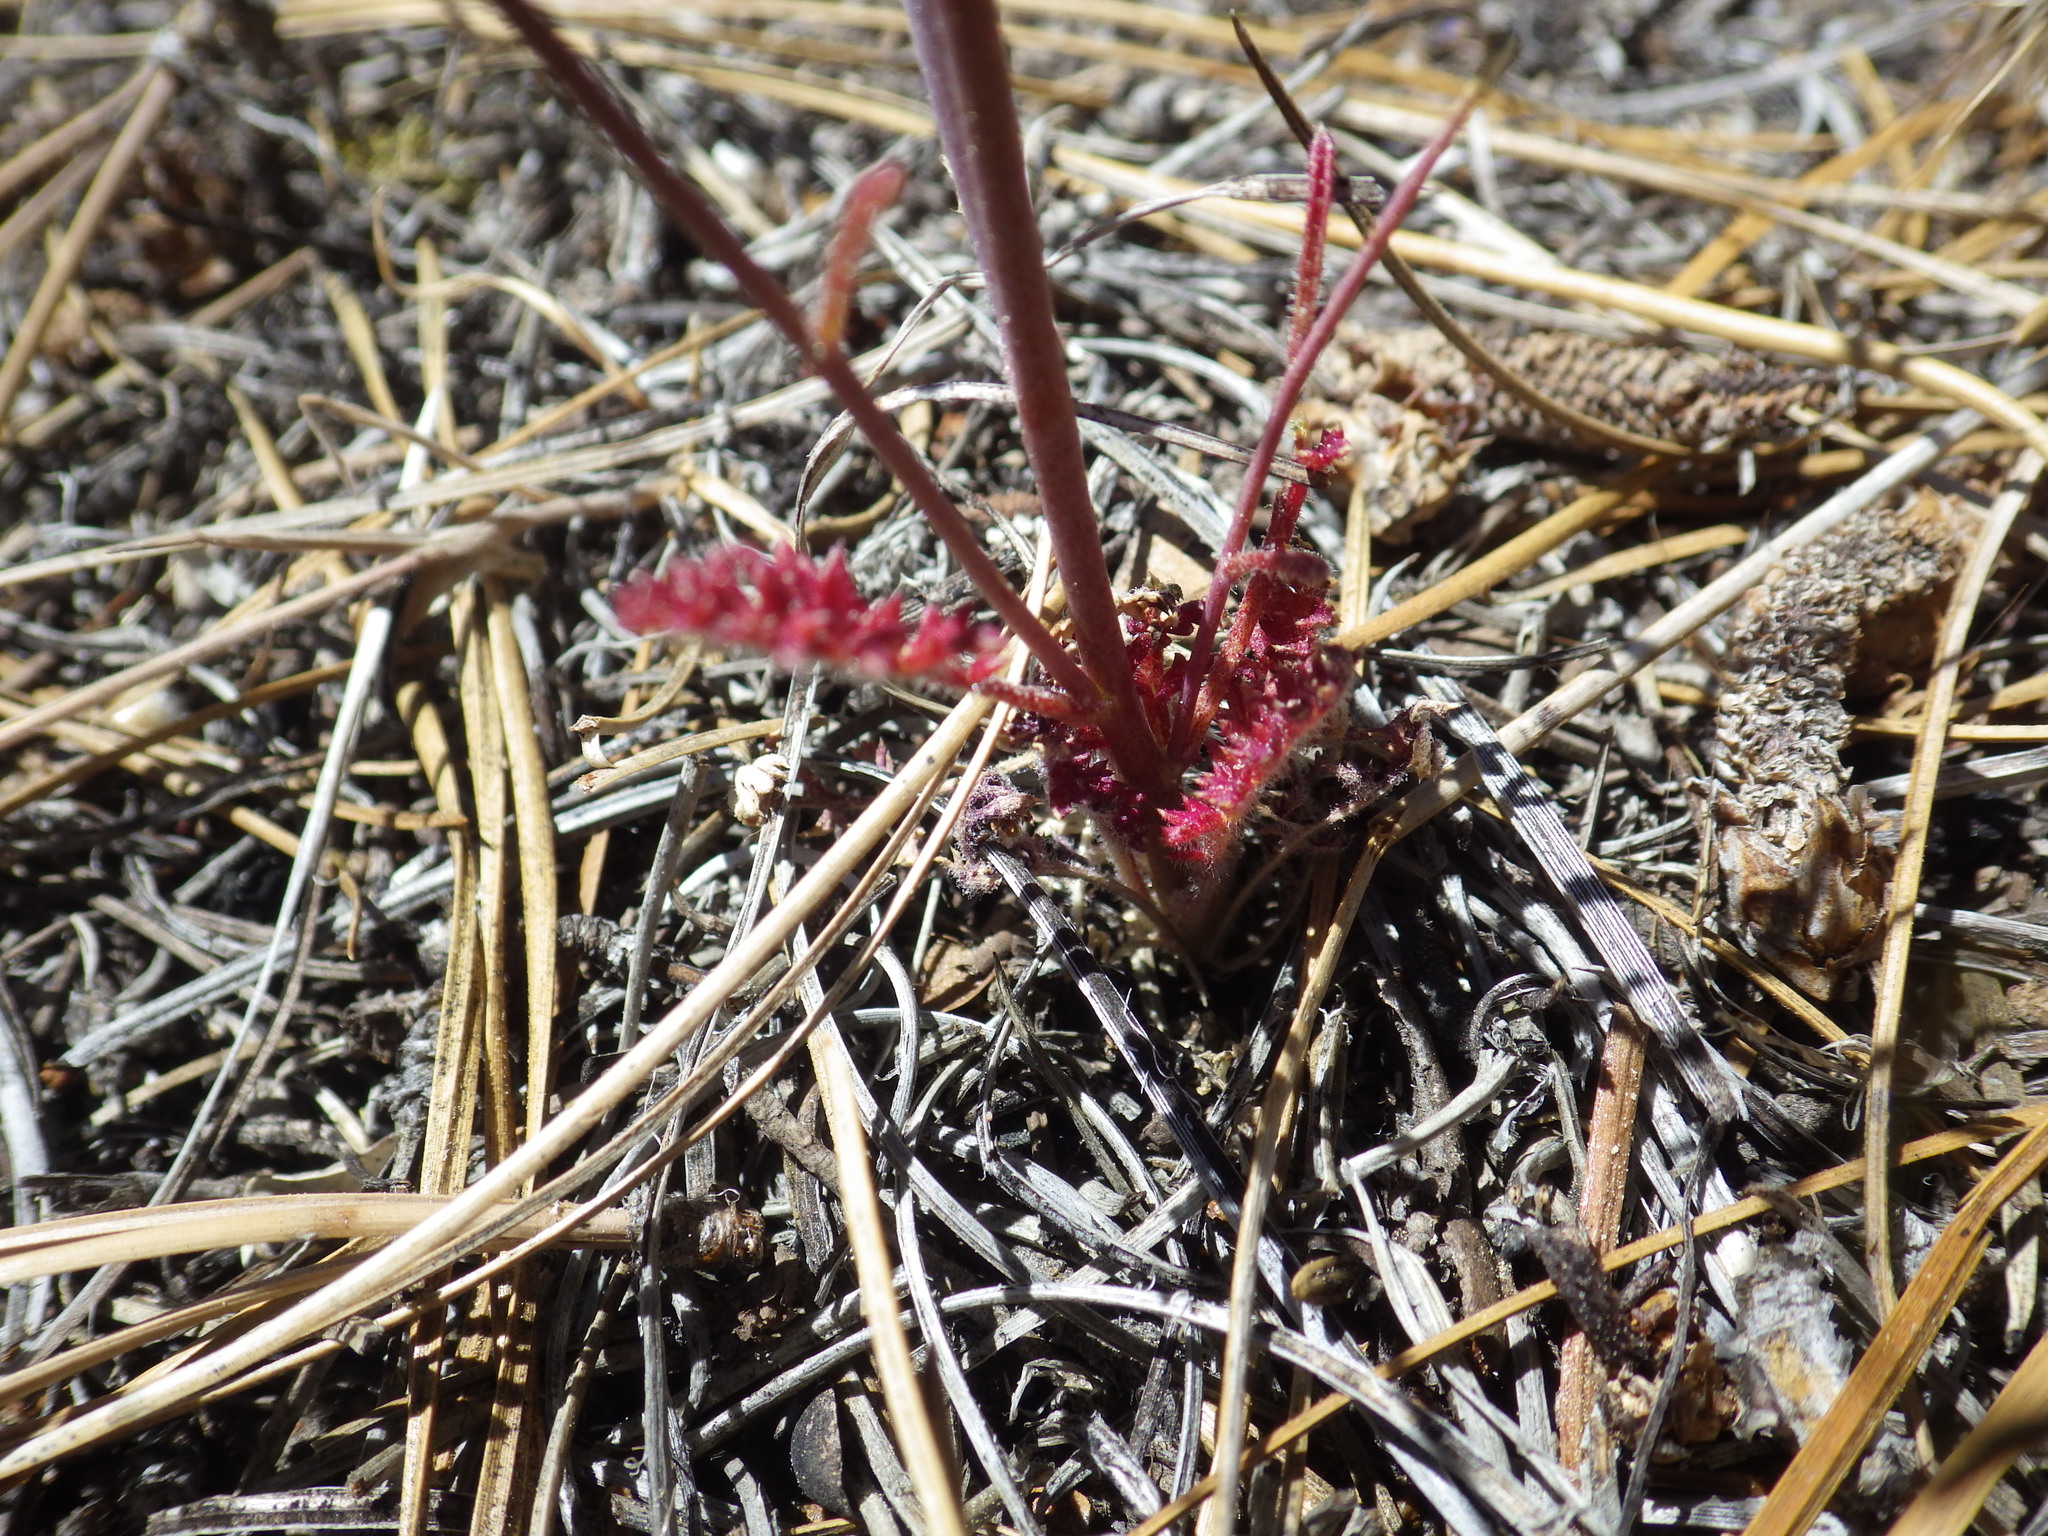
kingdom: Plantae
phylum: Tracheophyta
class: Magnoliopsida
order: Ericales
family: Polemoniaceae
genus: Saltugilia
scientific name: Saltugilia splendens
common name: Grinnell's gilia
